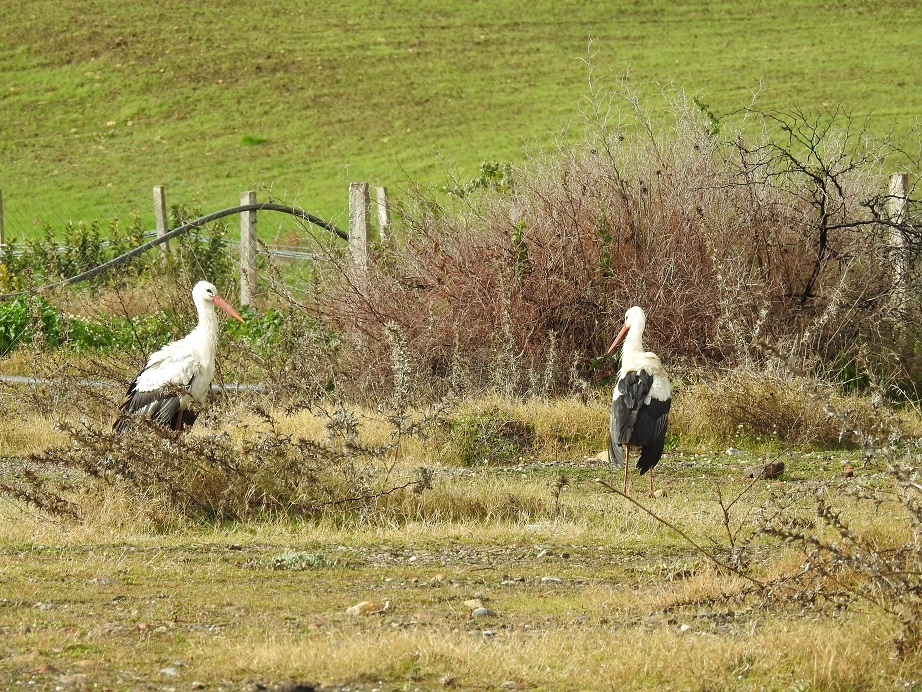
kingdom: Animalia
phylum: Chordata
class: Aves
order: Ciconiiformes
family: Ciconiidae
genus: Ciconia
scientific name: Ciconia ciconia
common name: White stork
